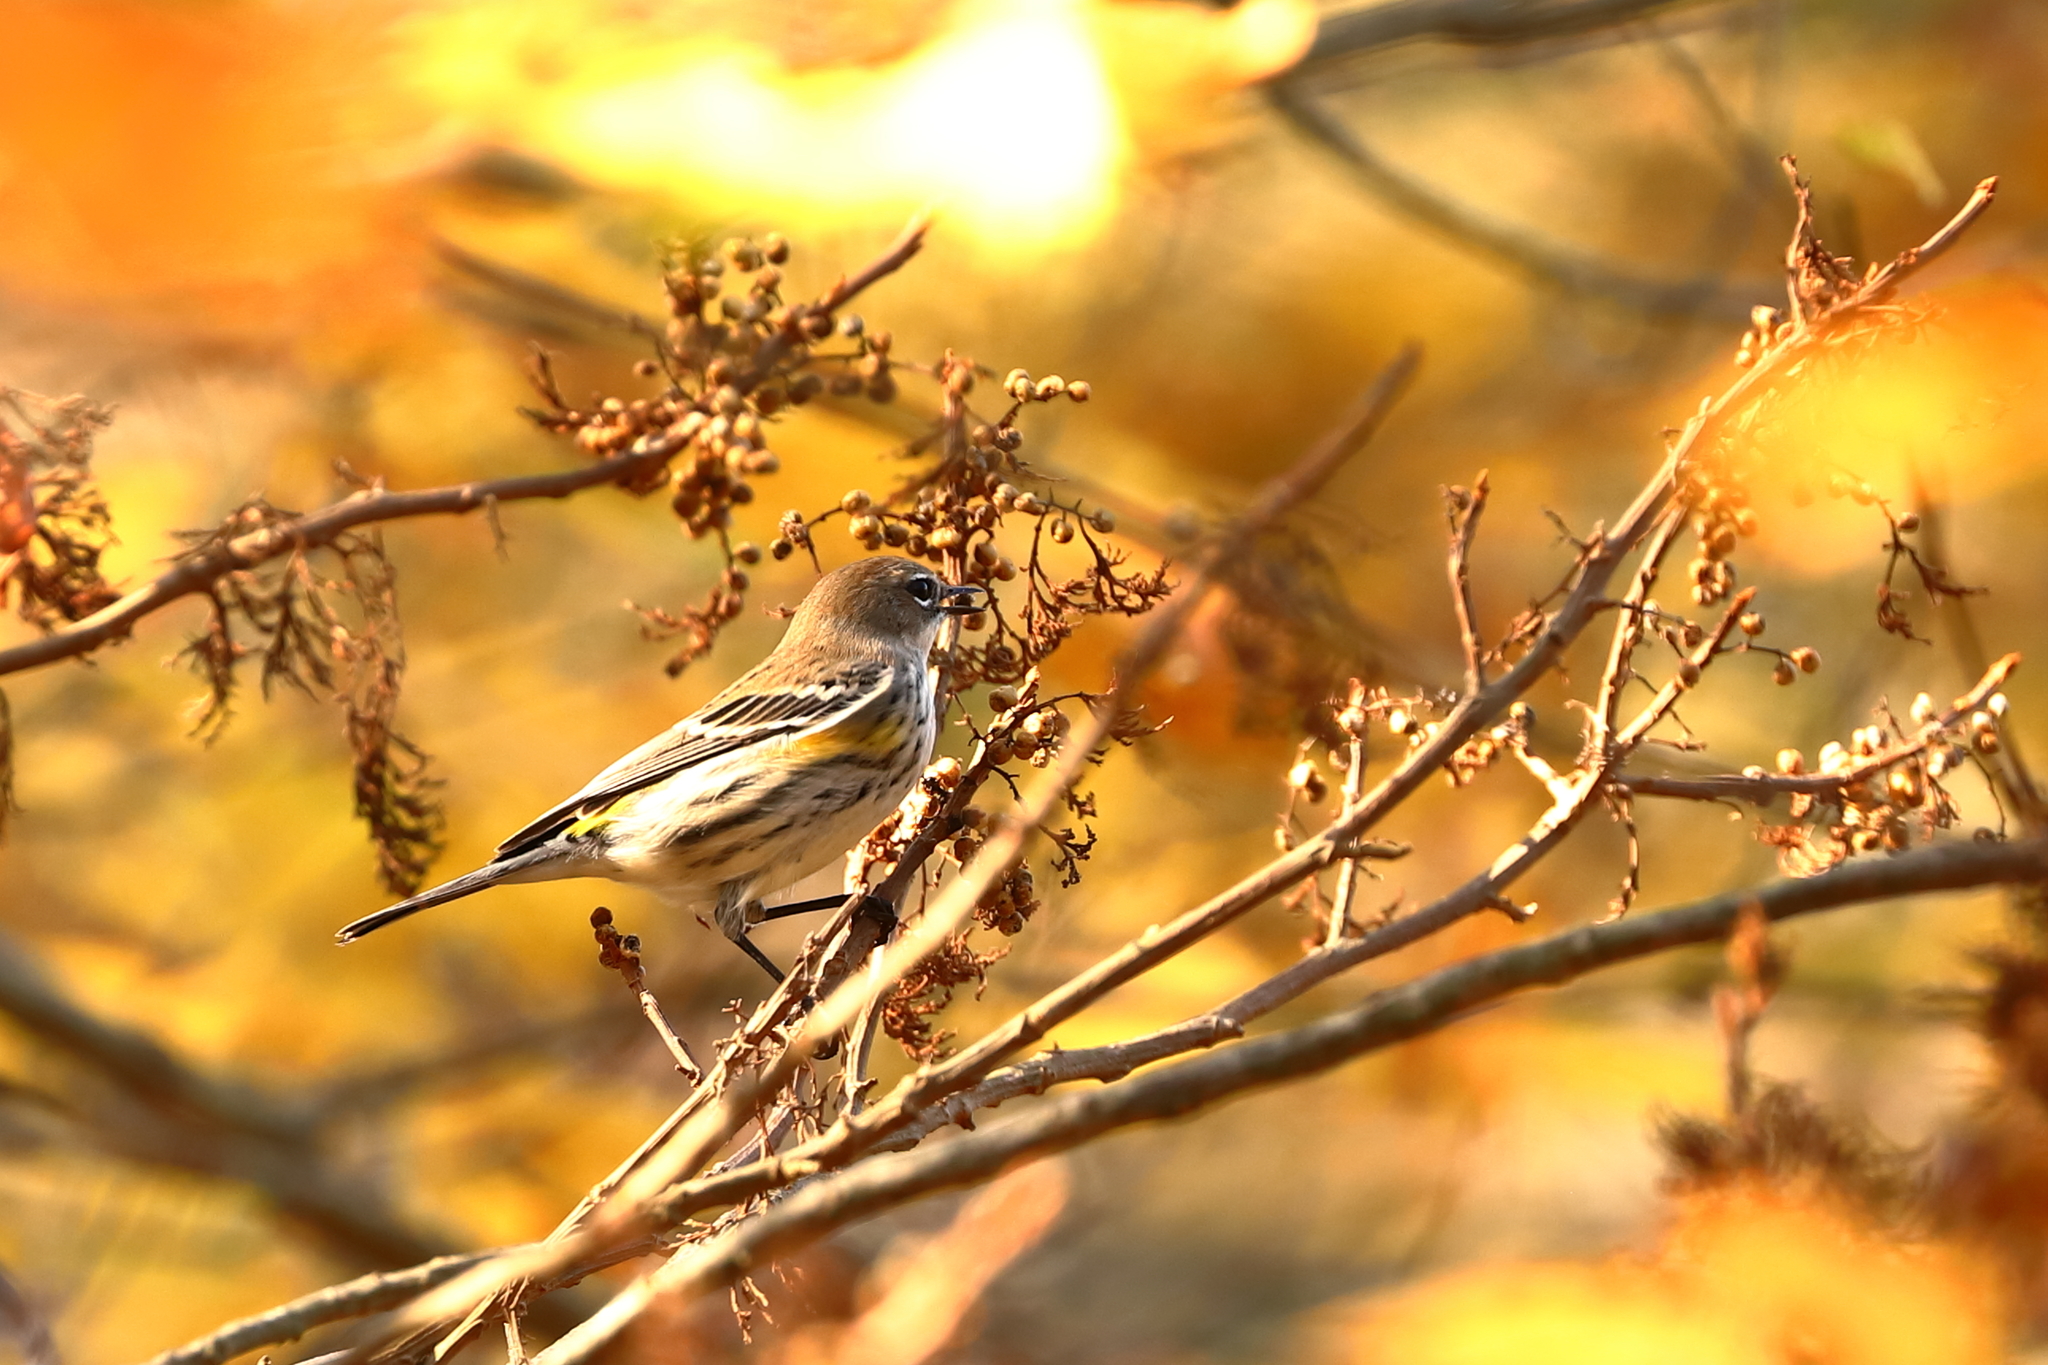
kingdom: Animalia
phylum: Chordata
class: Aves
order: Passeriformes
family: Parulidae
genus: Setophaga
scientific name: Setophaga coronata
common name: Myrtle warbler
